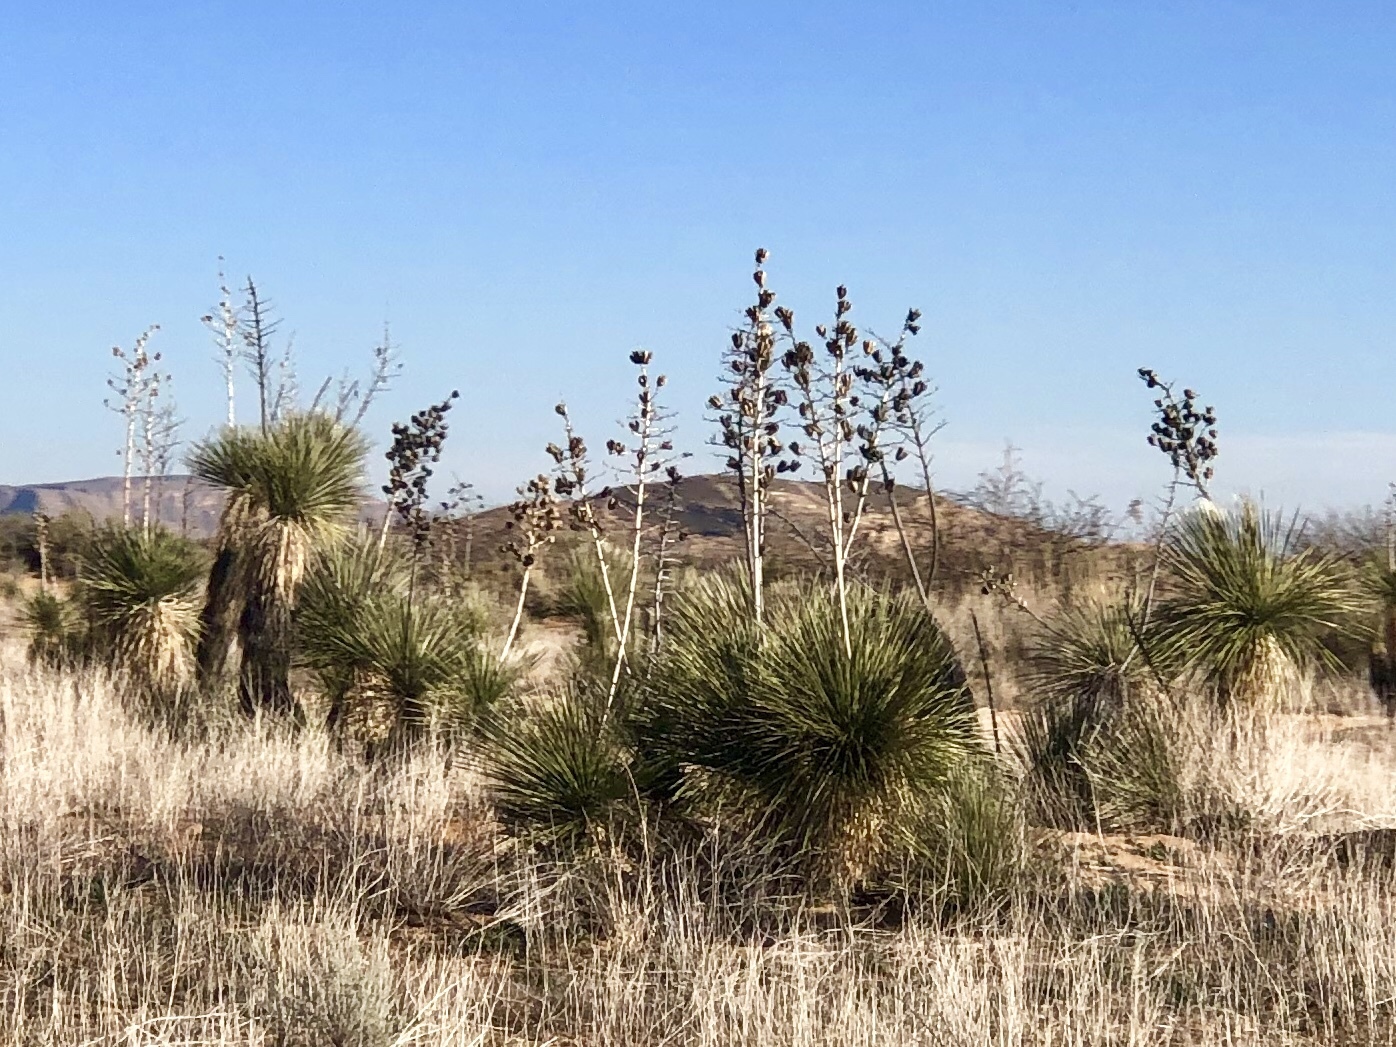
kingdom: Plantae
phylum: Tracheophyta
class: Liliopsida
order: Asparagales
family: Asparagaceae
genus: Yucca
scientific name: Yucca elata
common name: Palmella
